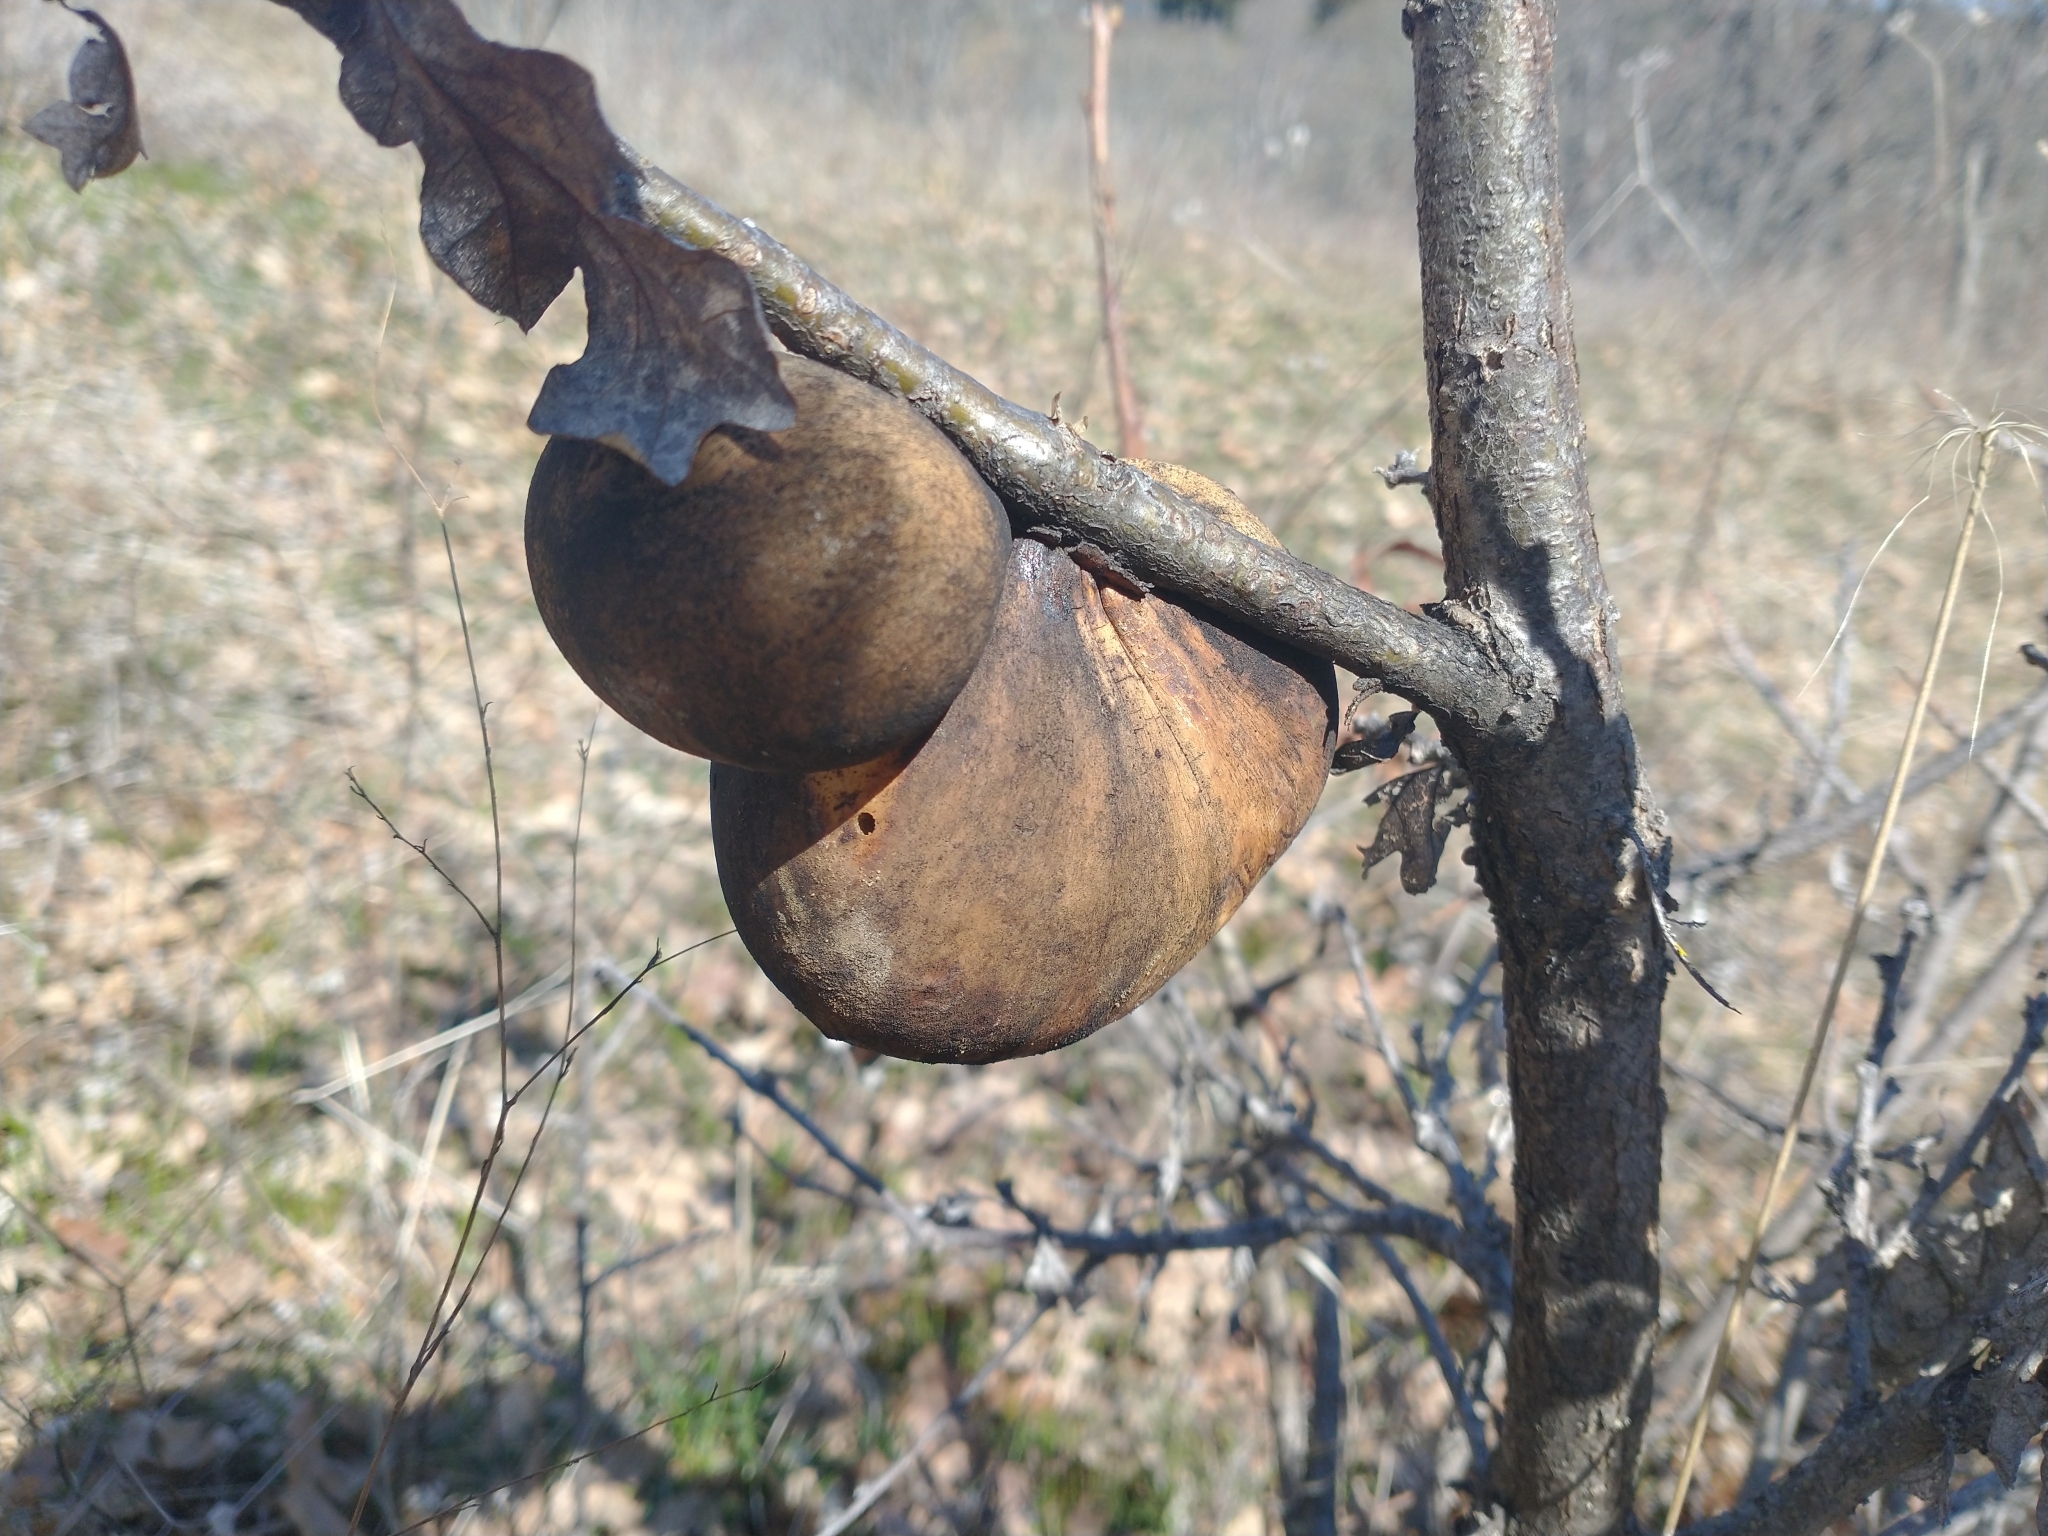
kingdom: Animalia
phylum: Arthropoda
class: Insecta
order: Hymenoptera
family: Cynipidae
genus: Andricus
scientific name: Andricus quercuscalifornicus
